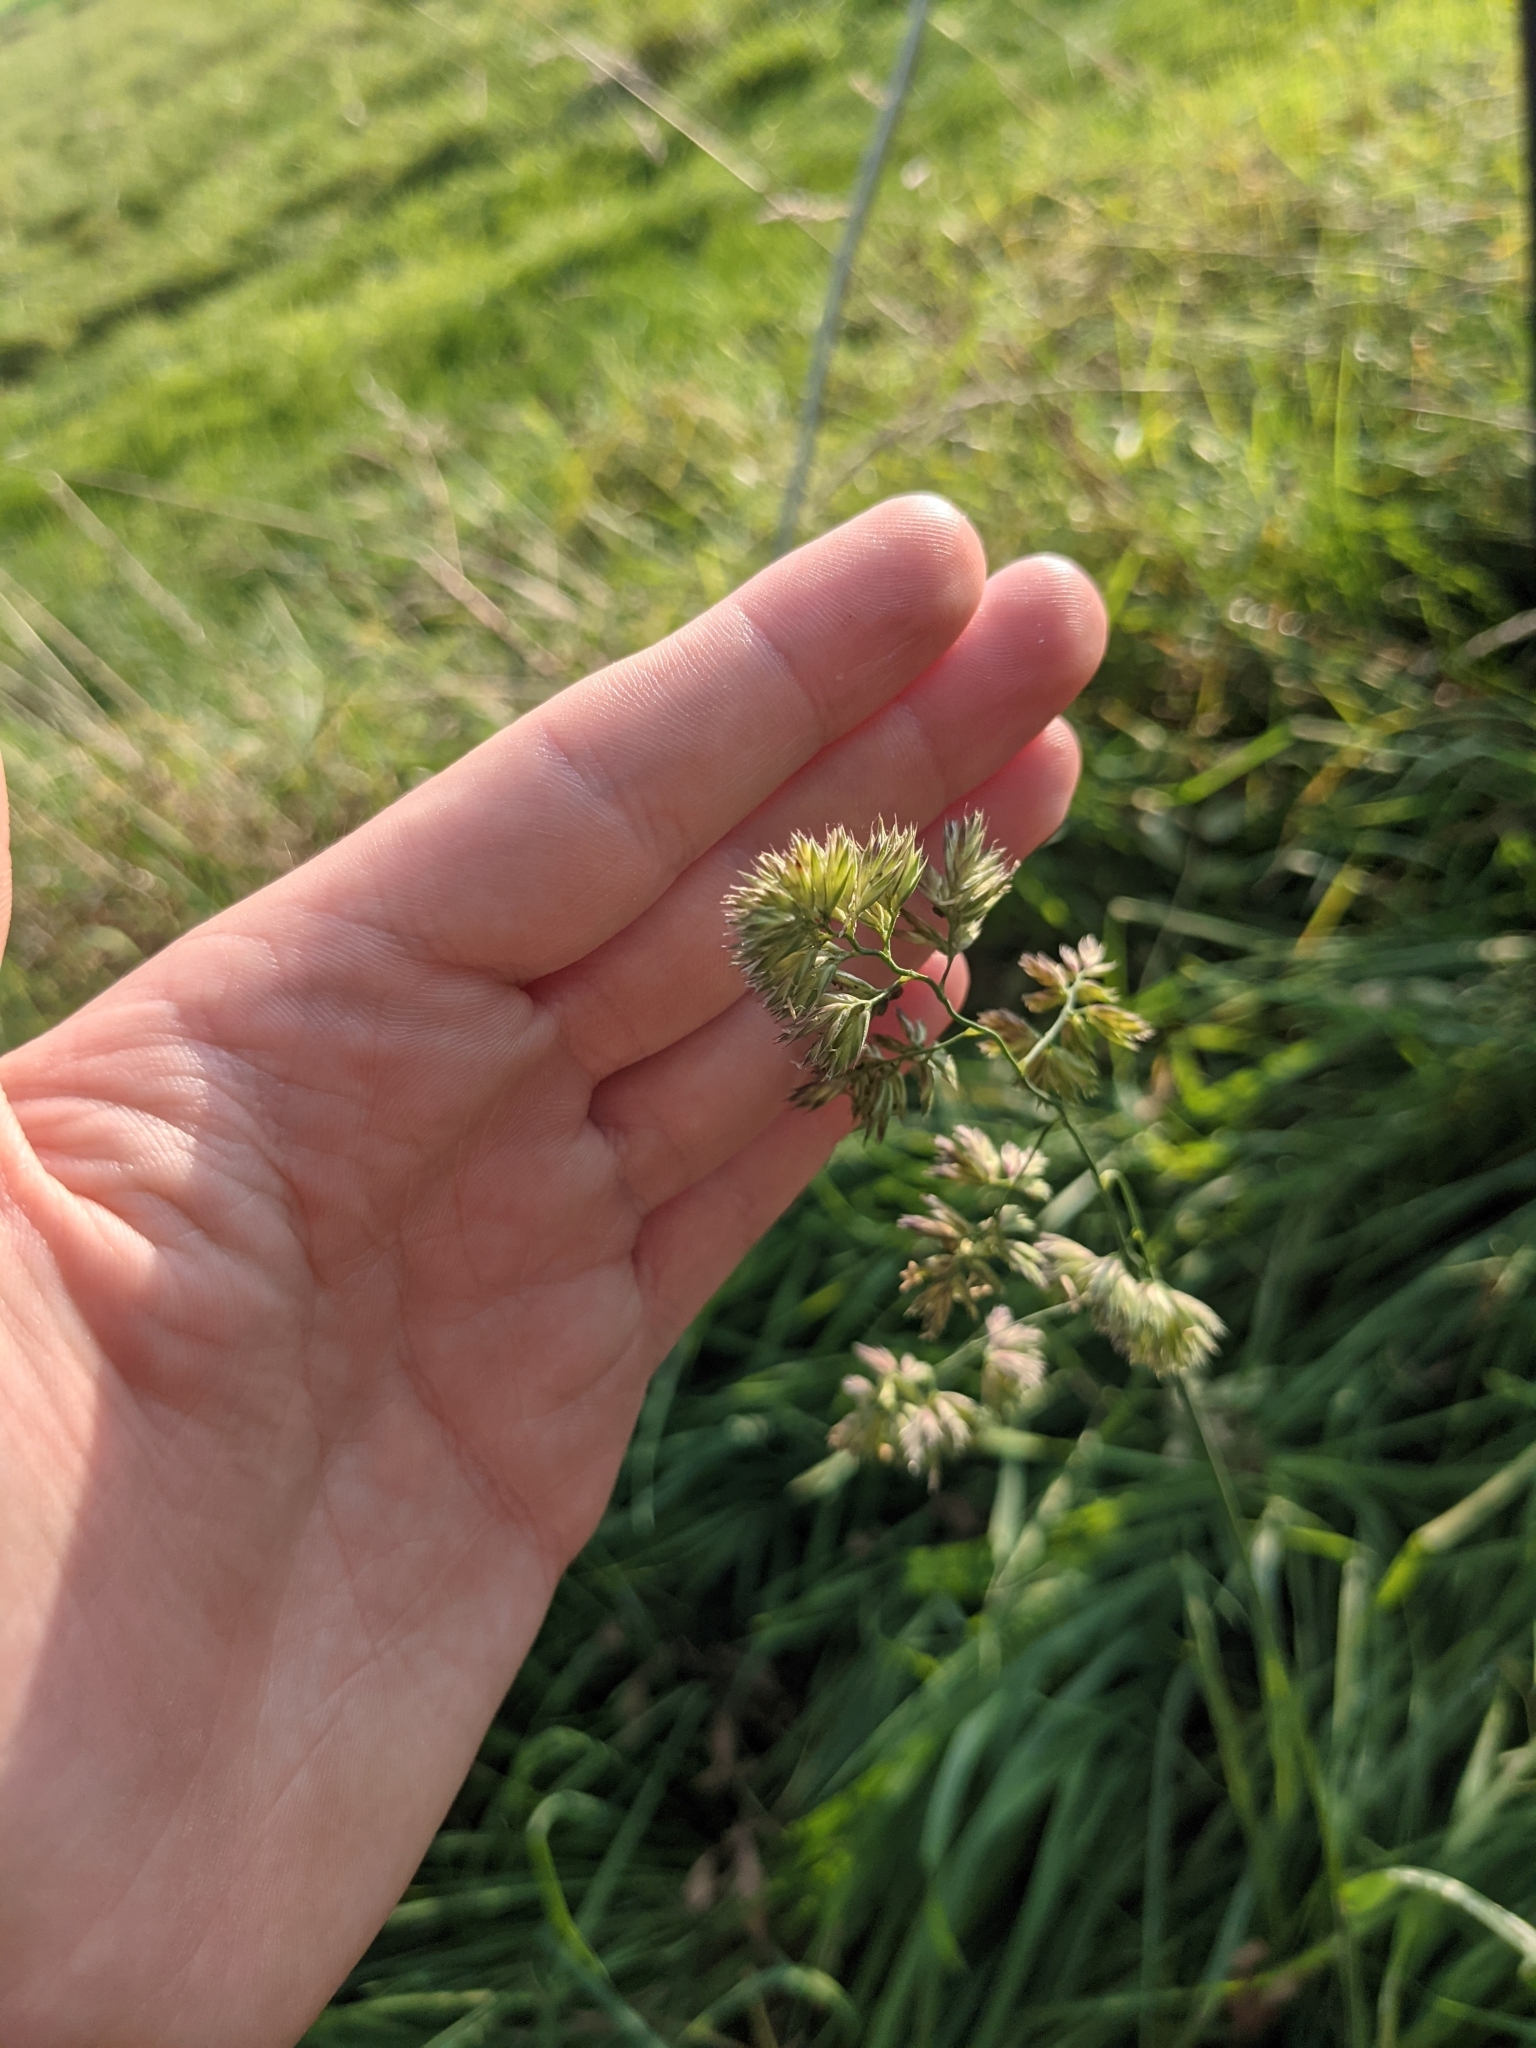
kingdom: Plantae
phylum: Tracheophyta
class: Liliopsida
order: Poales
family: Poaceae
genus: Dactylis
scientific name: Dactylis glomerata
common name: Orchardgrass
